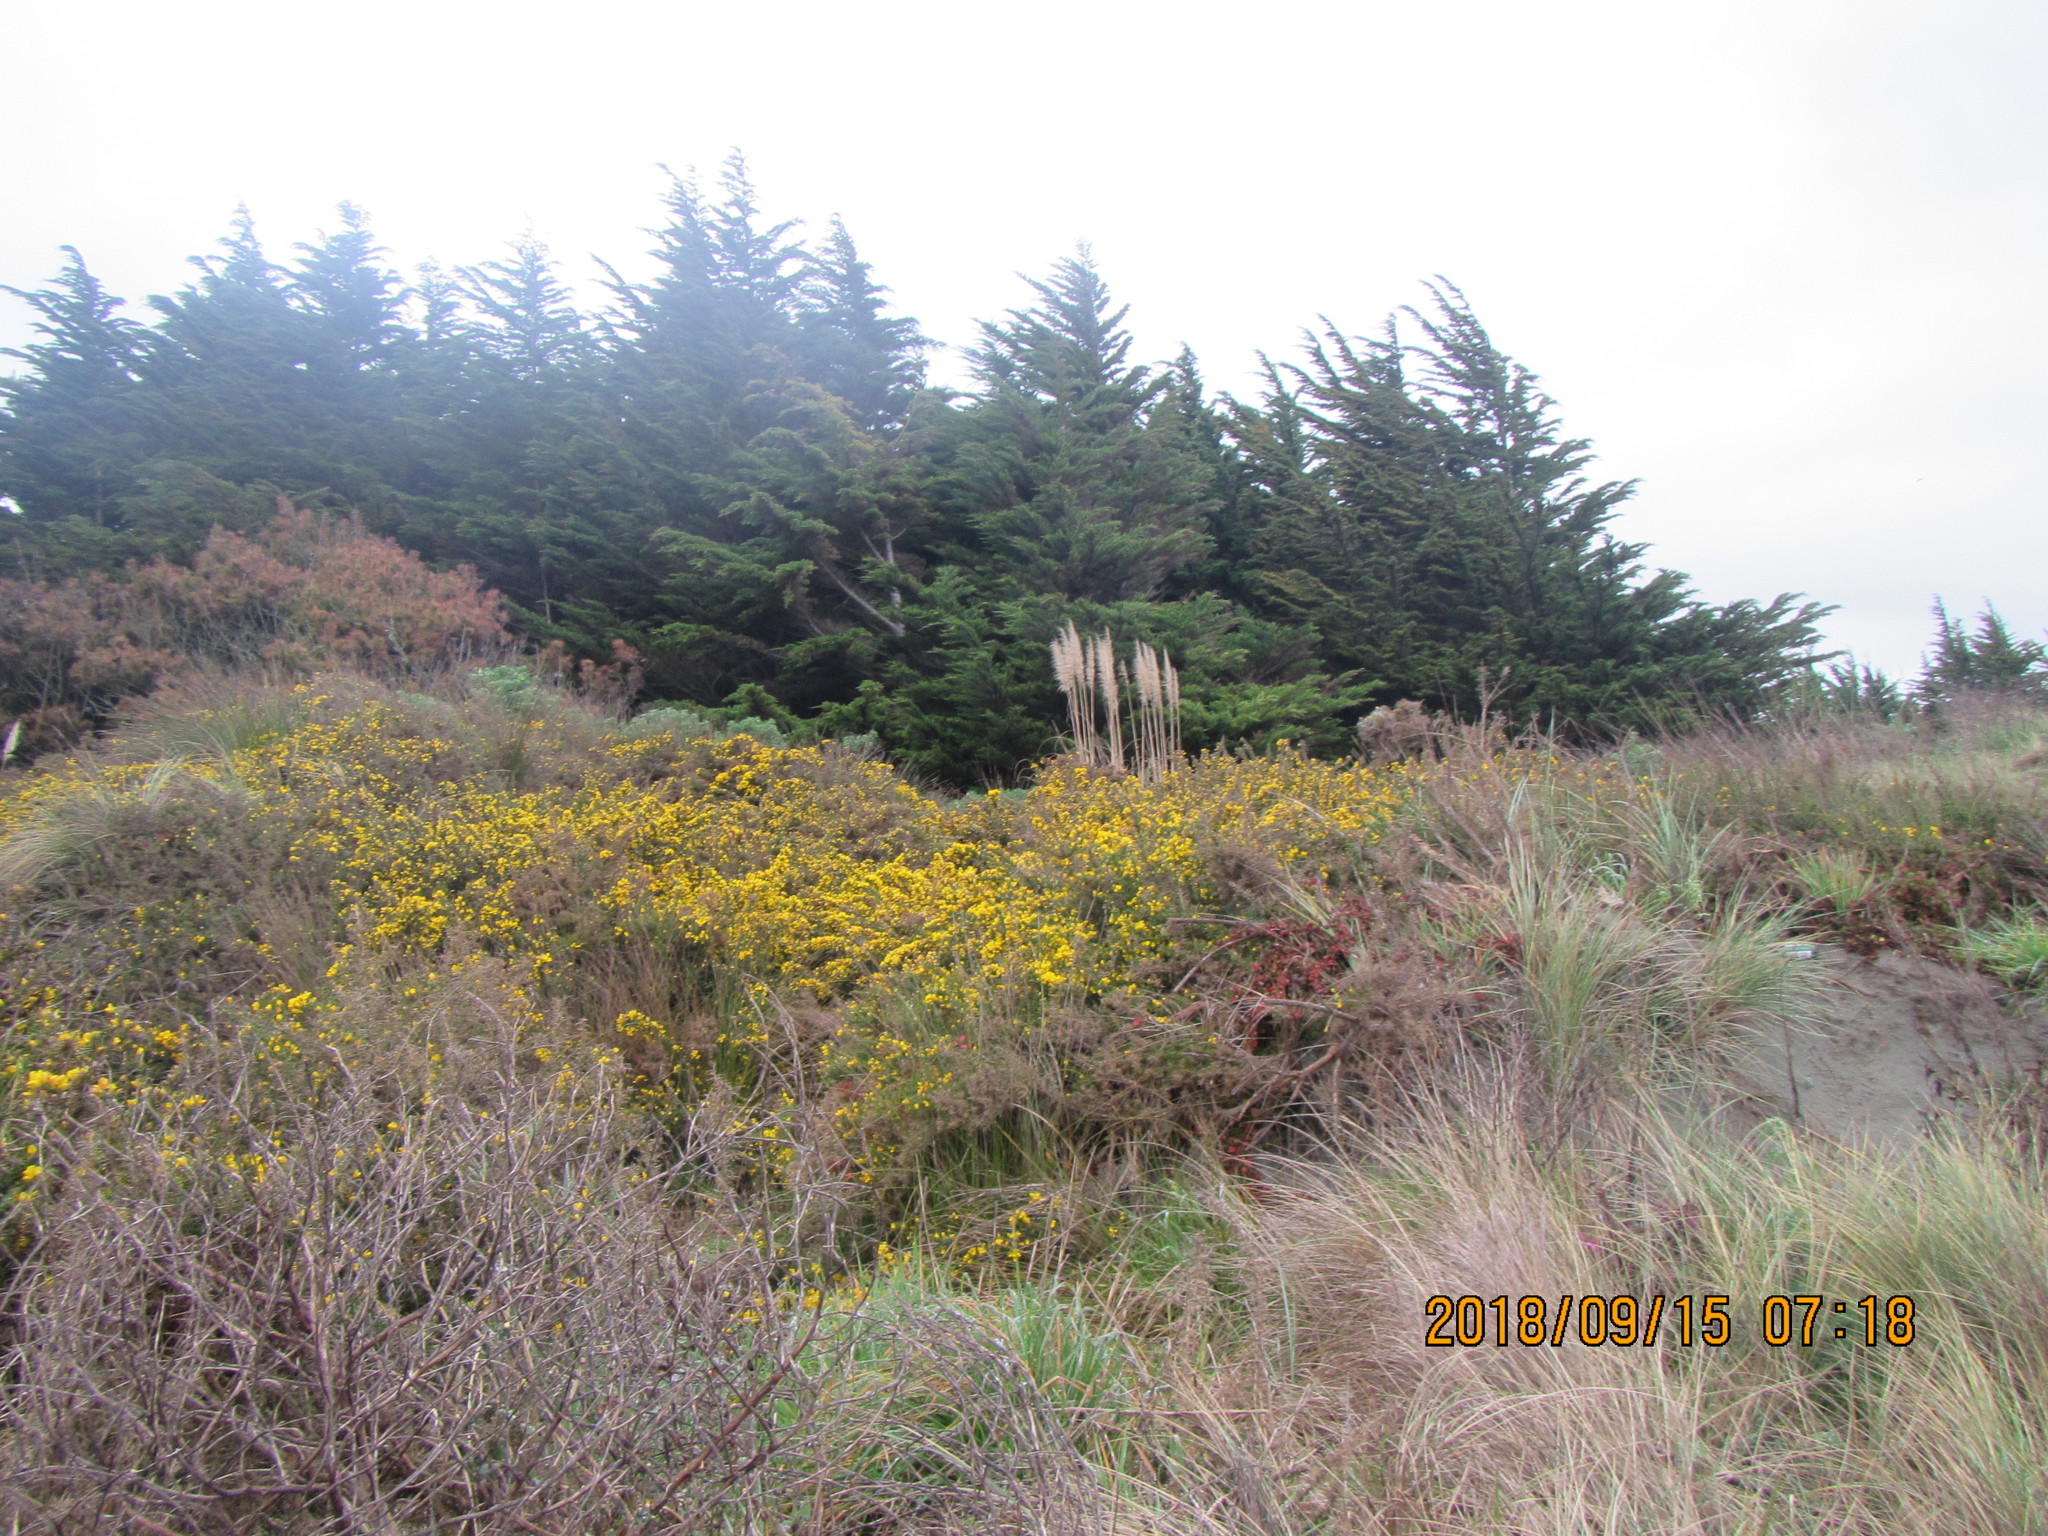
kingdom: Plantae
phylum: Tracheophyta
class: Magnoliopsida
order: Fabales
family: Fabaceae
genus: Ulex
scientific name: Ulex europaeus
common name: Common gorse
